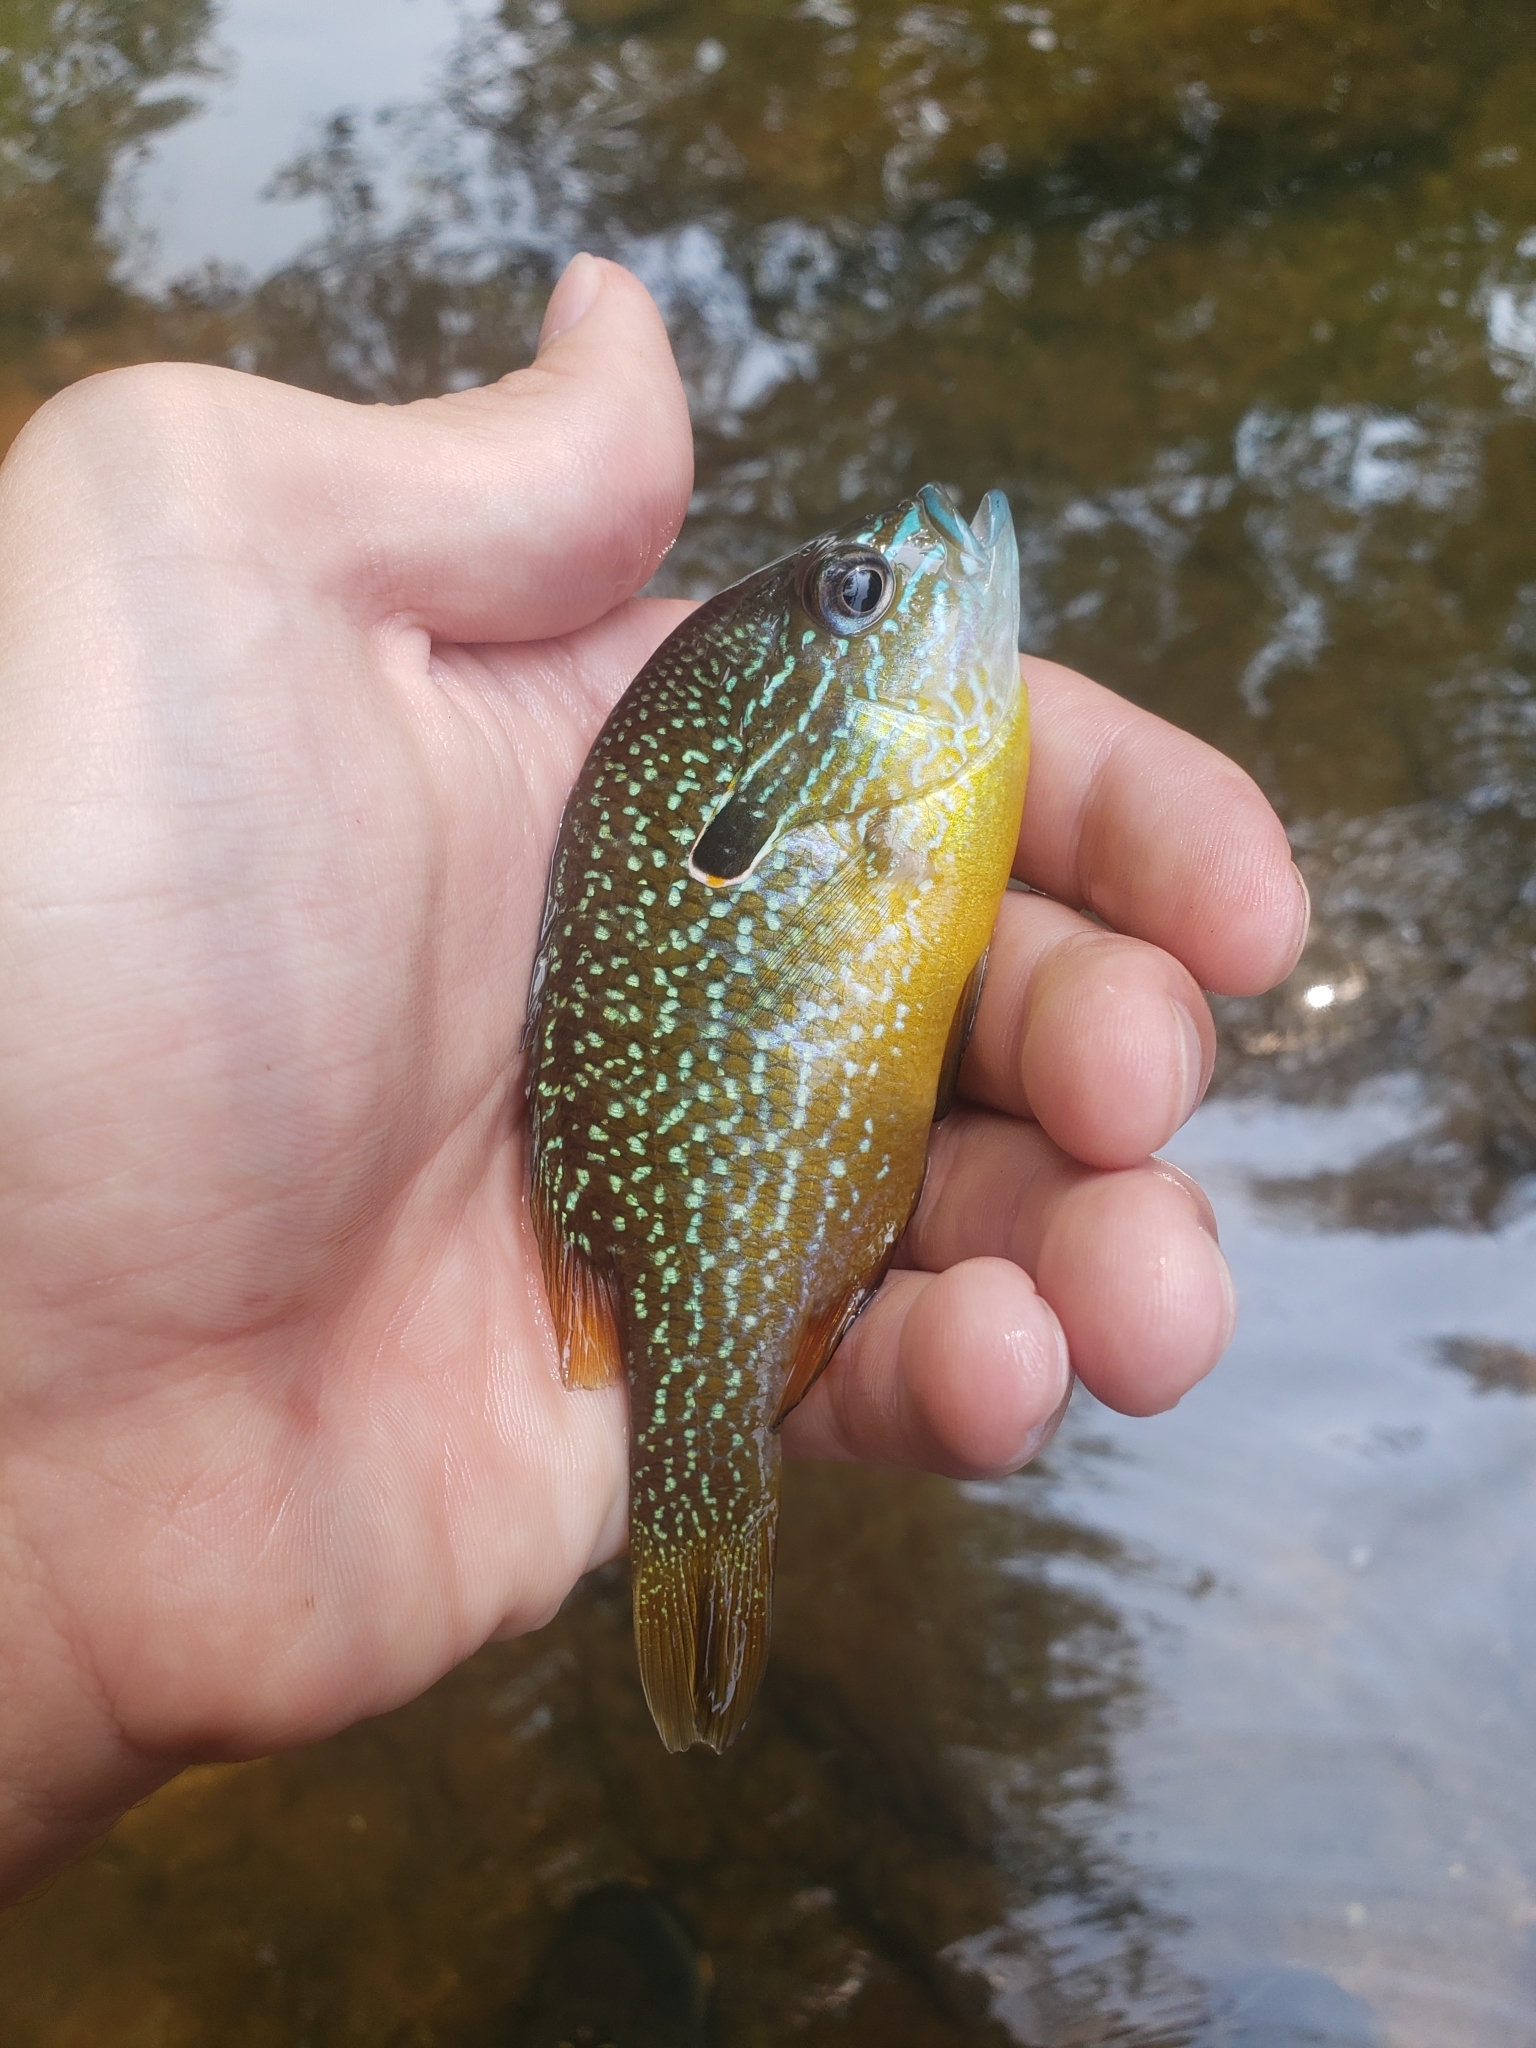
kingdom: Animalia
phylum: Chordata
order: Perciformes
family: Centrarchidae
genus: Lepomis
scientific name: Lepomis megalotis
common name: Longear sunfish
